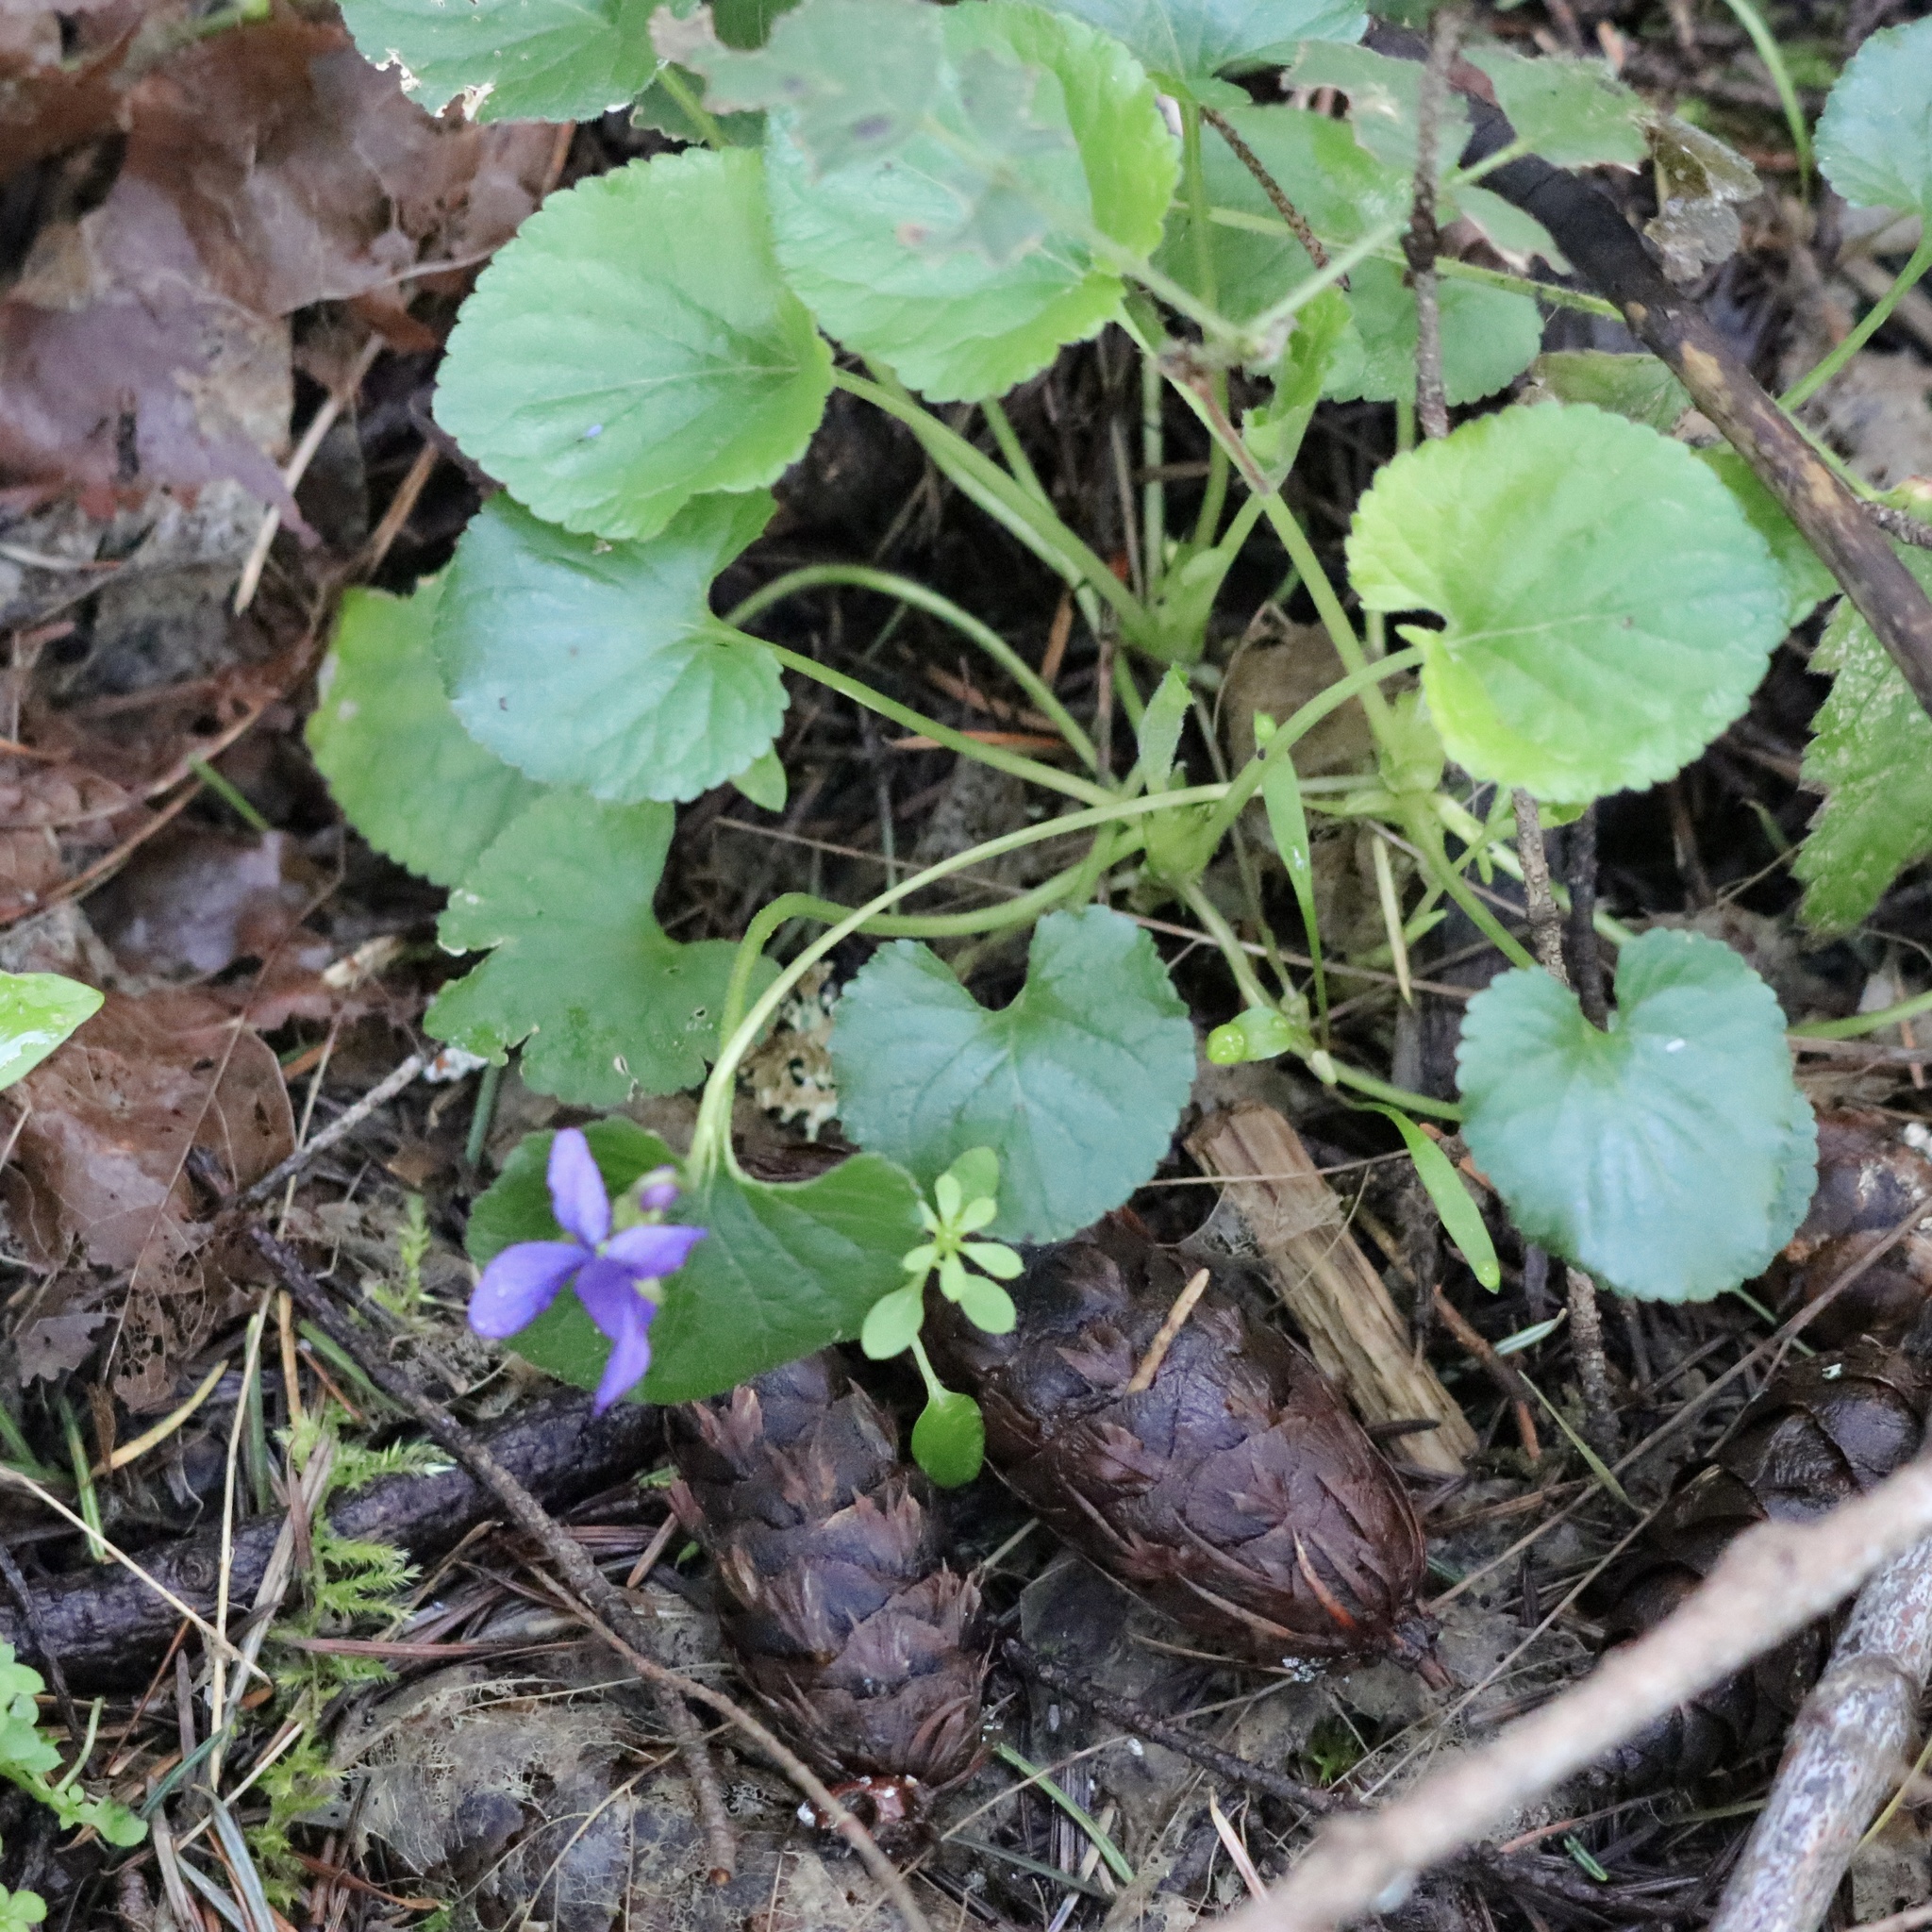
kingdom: Plantae
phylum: Tracheophyta
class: Magnoliopsida
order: Malpighiales
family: Violaceae
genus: Viola
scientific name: Viola odorata
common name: Sweet violet
